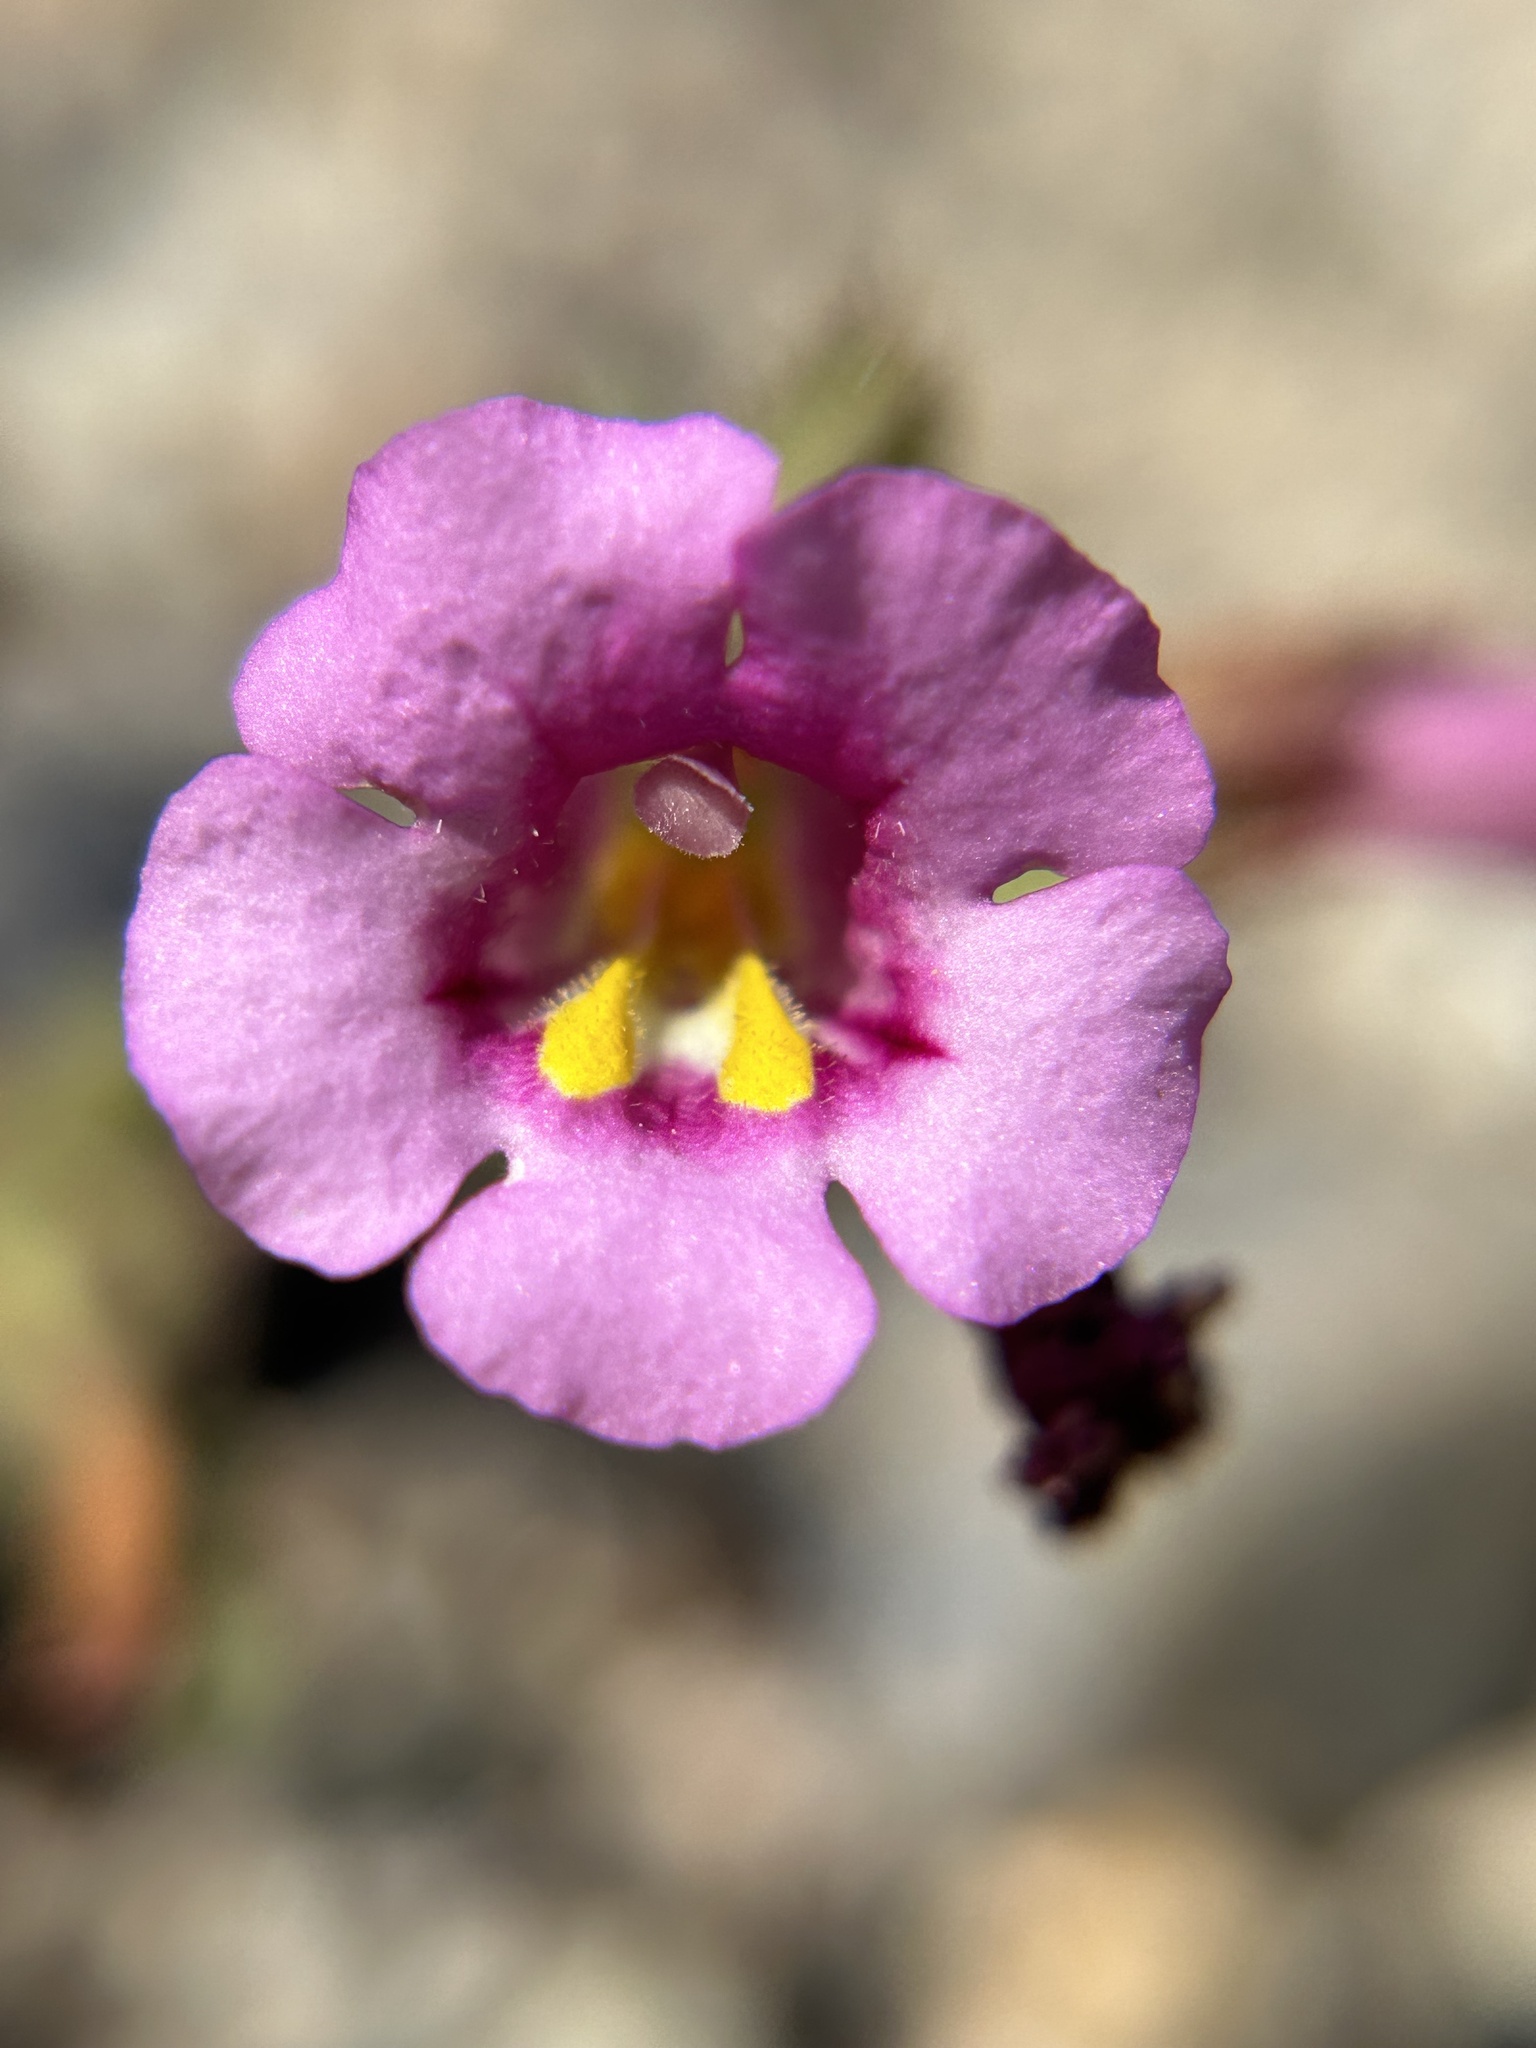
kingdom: Plantae
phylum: Tracheophyta
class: Magnoliopsida
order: Lamiales
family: Phrymaceae
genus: Diplacus
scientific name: Diplacus fremontii
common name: Fremont's monkey-flower
